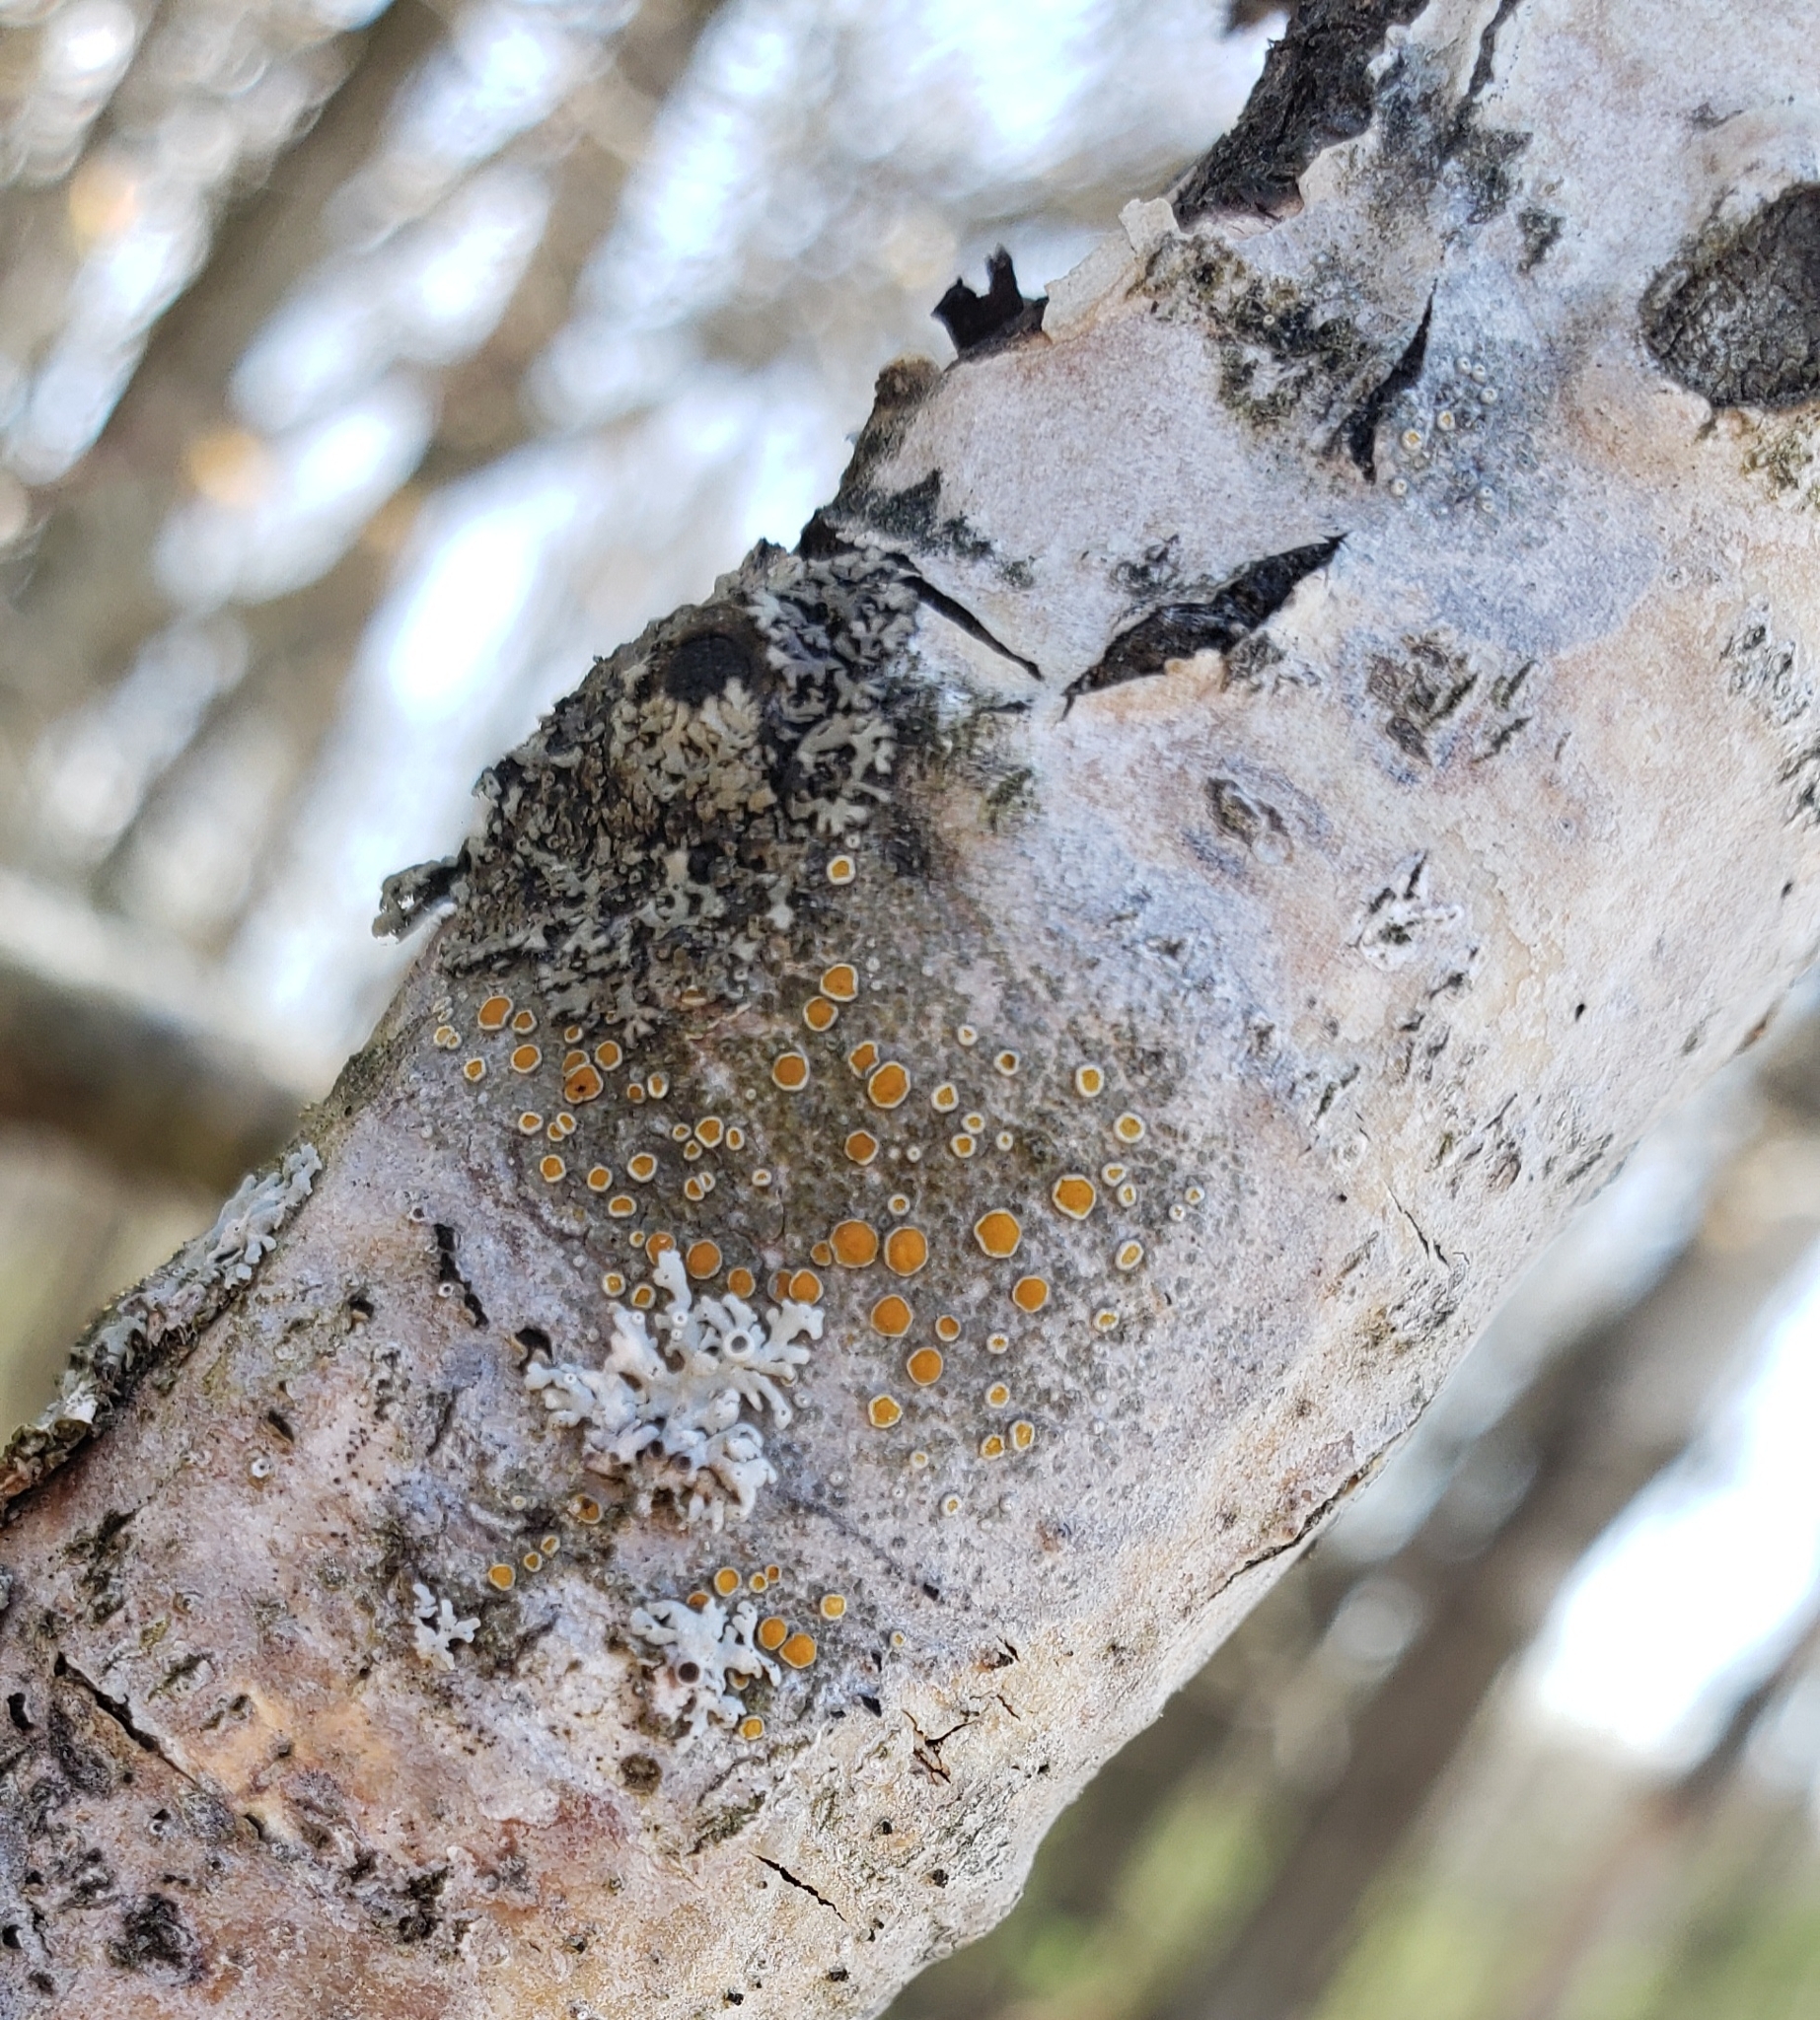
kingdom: Fungi
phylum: Ascomycota
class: Lecanoromycetes
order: Teloschistales
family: Teloschistaceae
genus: Caloplaca
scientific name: Caloplaca cerina
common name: Gray-rimmed firedot lichen
